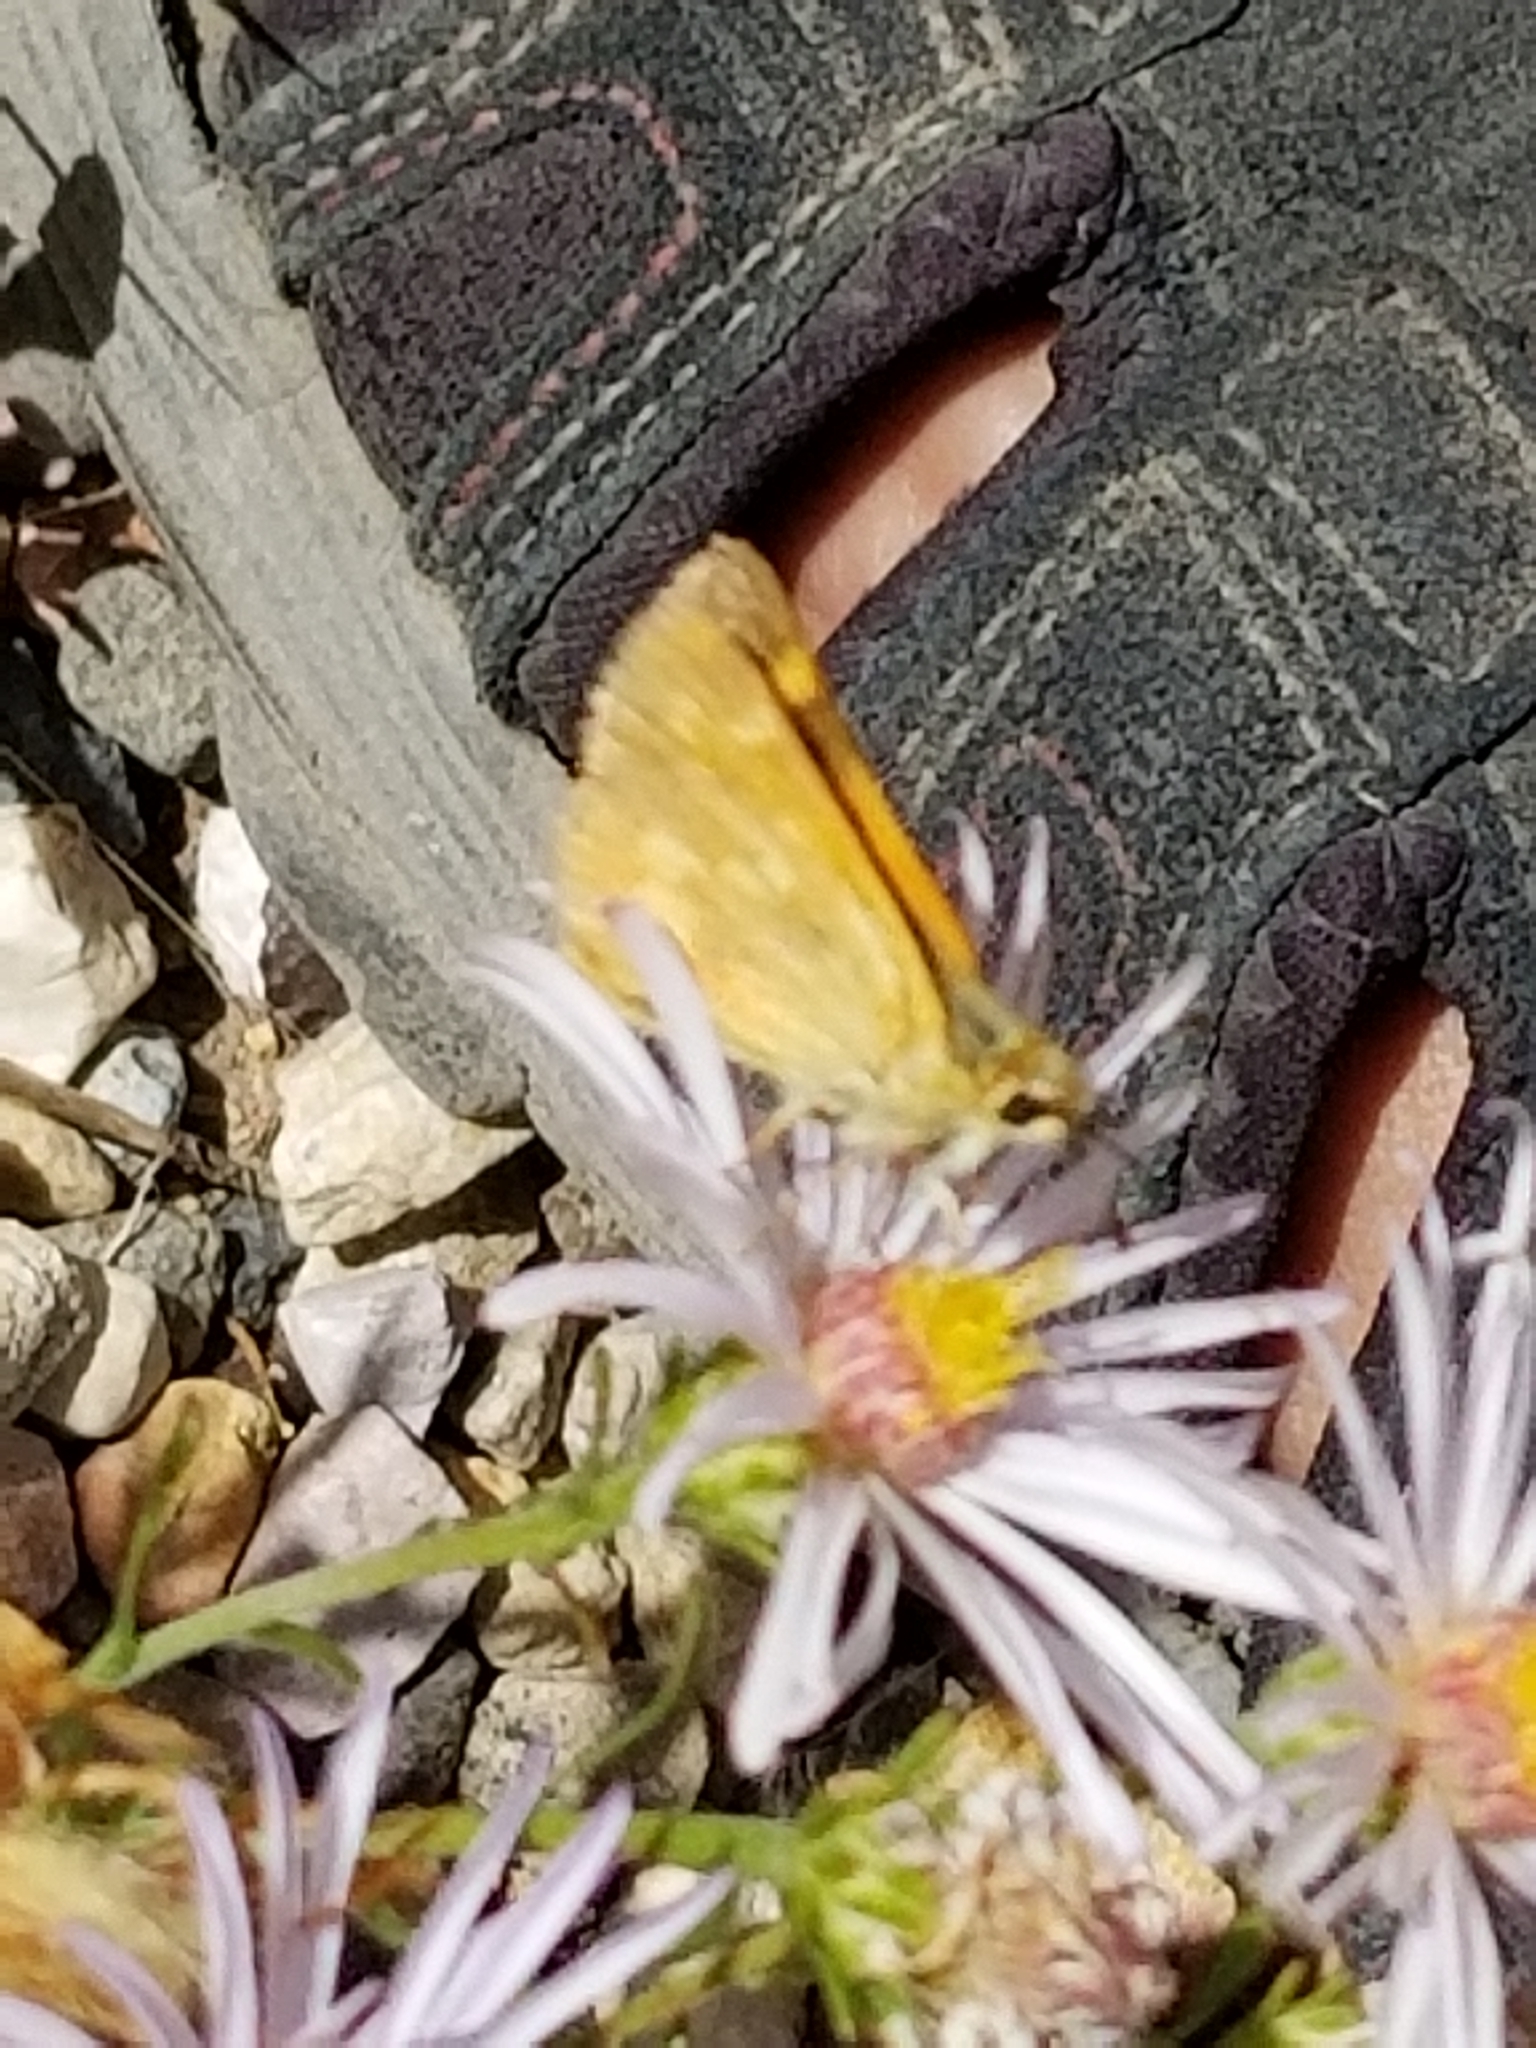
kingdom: Animalia
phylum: Arthropoda
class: Insecta
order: Lepidoptera
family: Hesperiidae
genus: Ochlodes
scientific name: Ochlodes sylvanoides
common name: Woodland skipper
